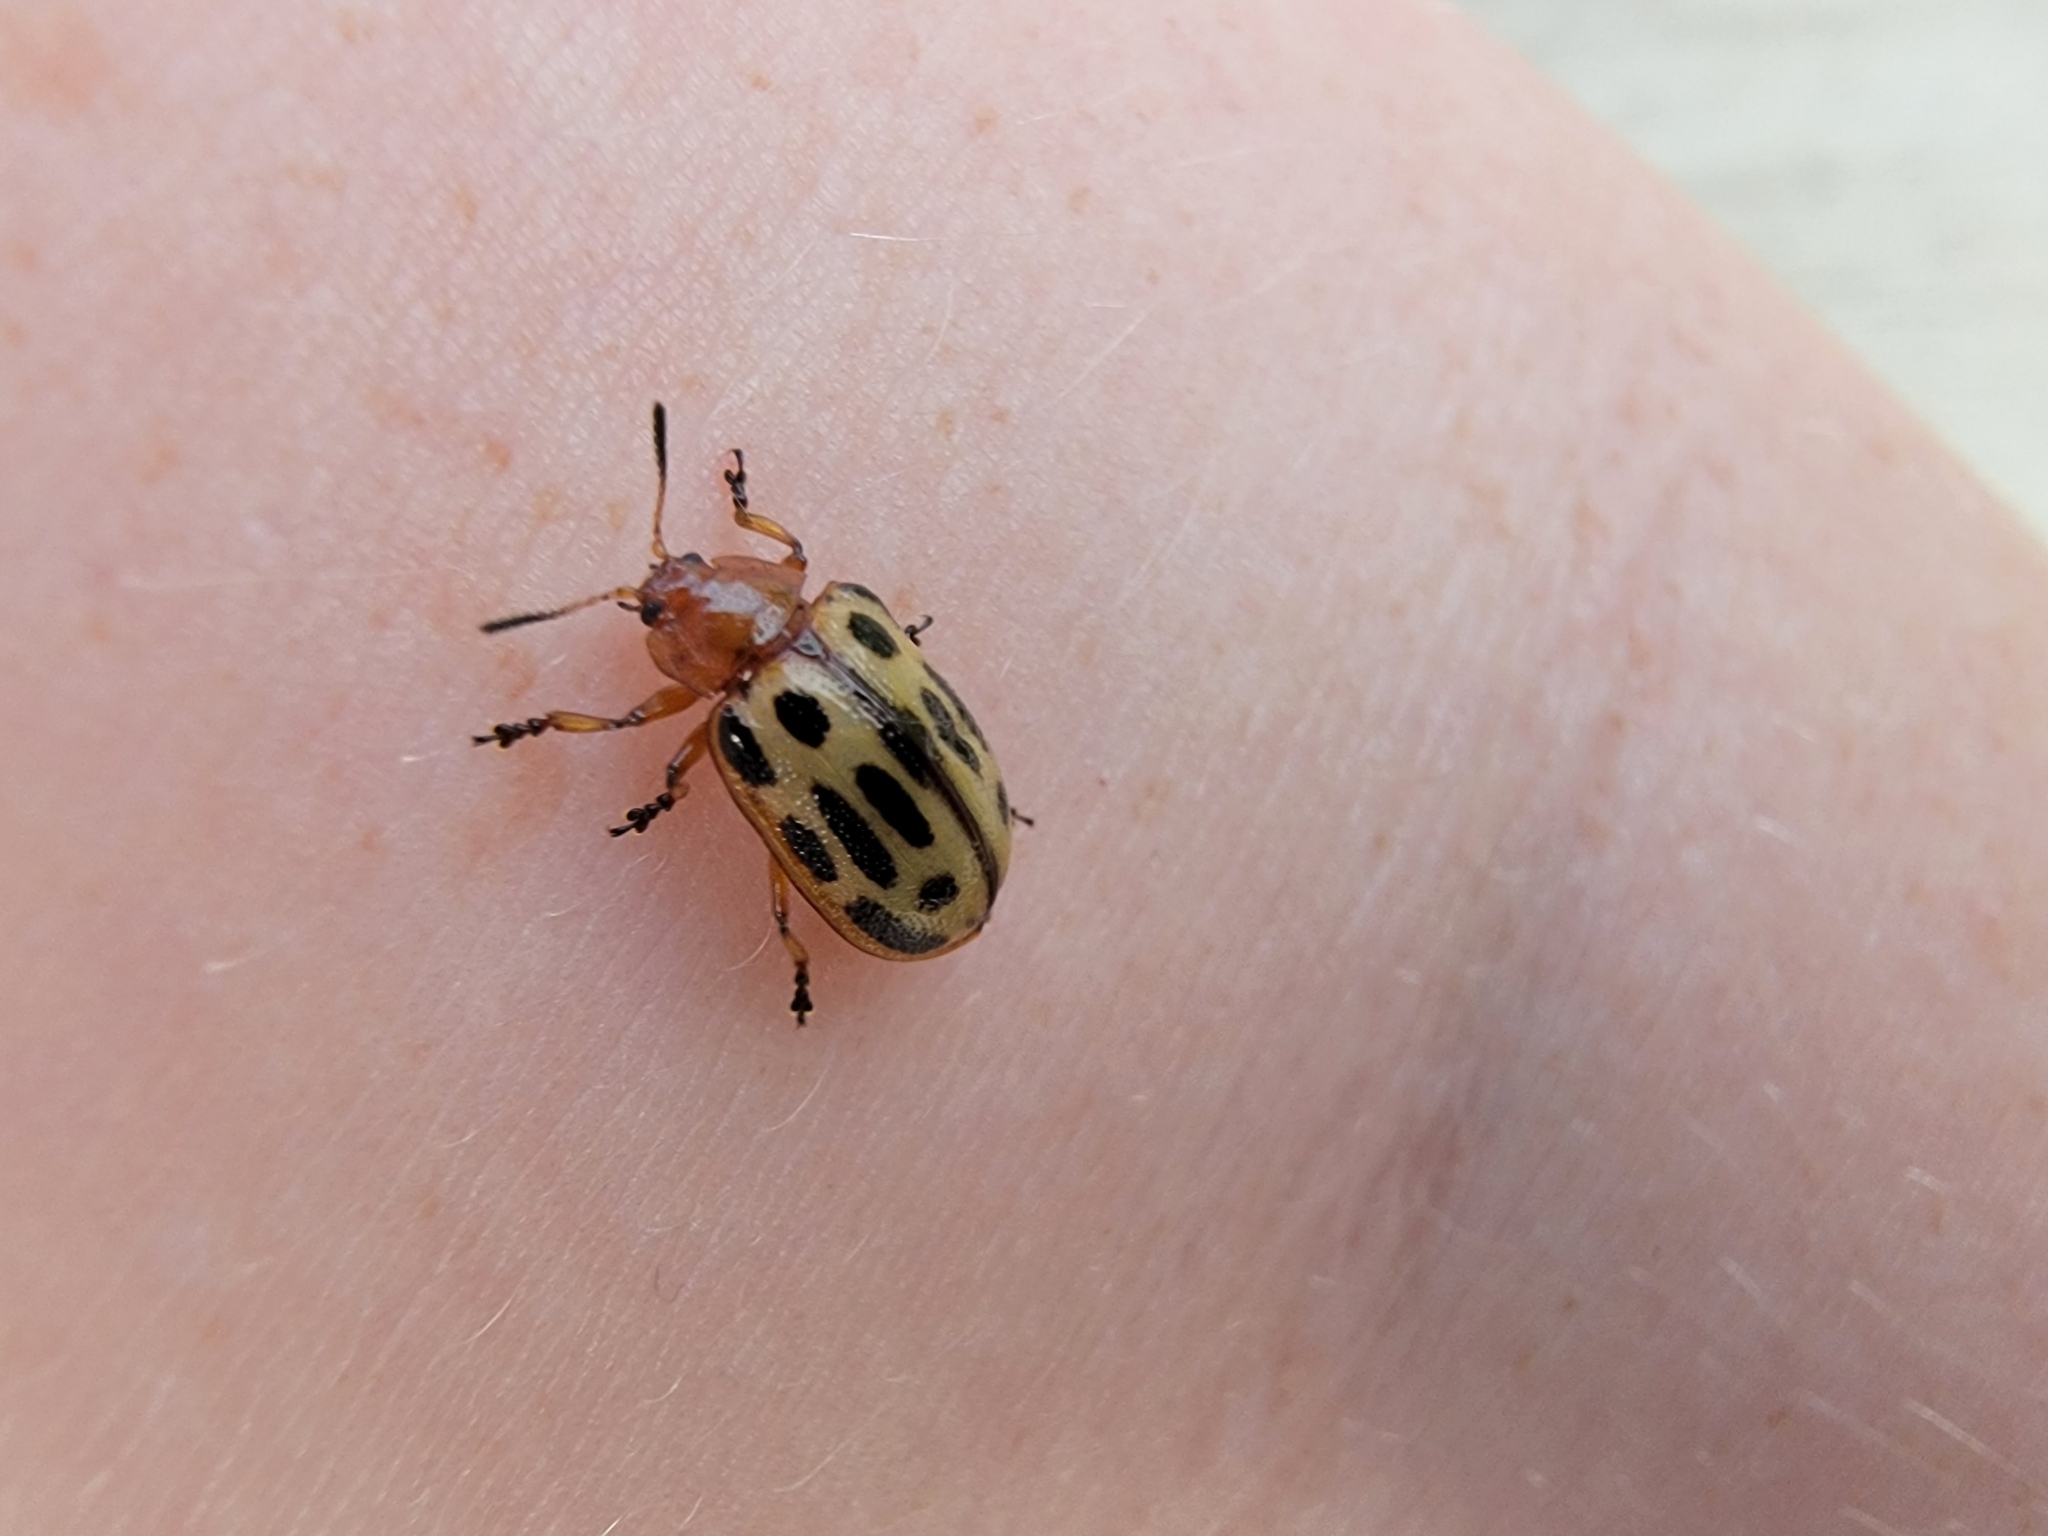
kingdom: Animalia
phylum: Arthropoda
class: Insecta
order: Coleoptera
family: Chrysomelidae
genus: Chrysomela
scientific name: Chrysomela texana
